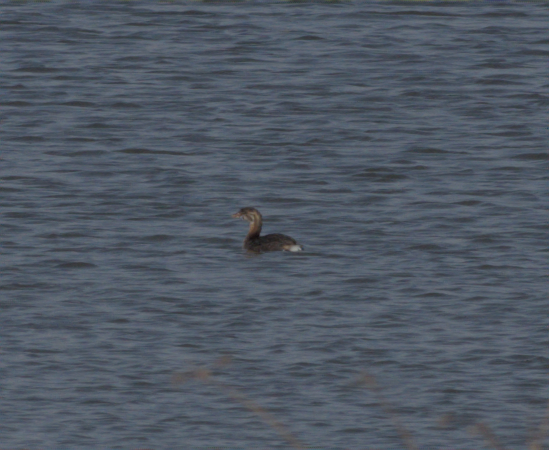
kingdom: Animalia
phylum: Chordata
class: Aves
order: Podicipediformes
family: Podicipedidae
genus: Podilymbus
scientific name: Podilymbus podiceps
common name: Pied-billed grebe
